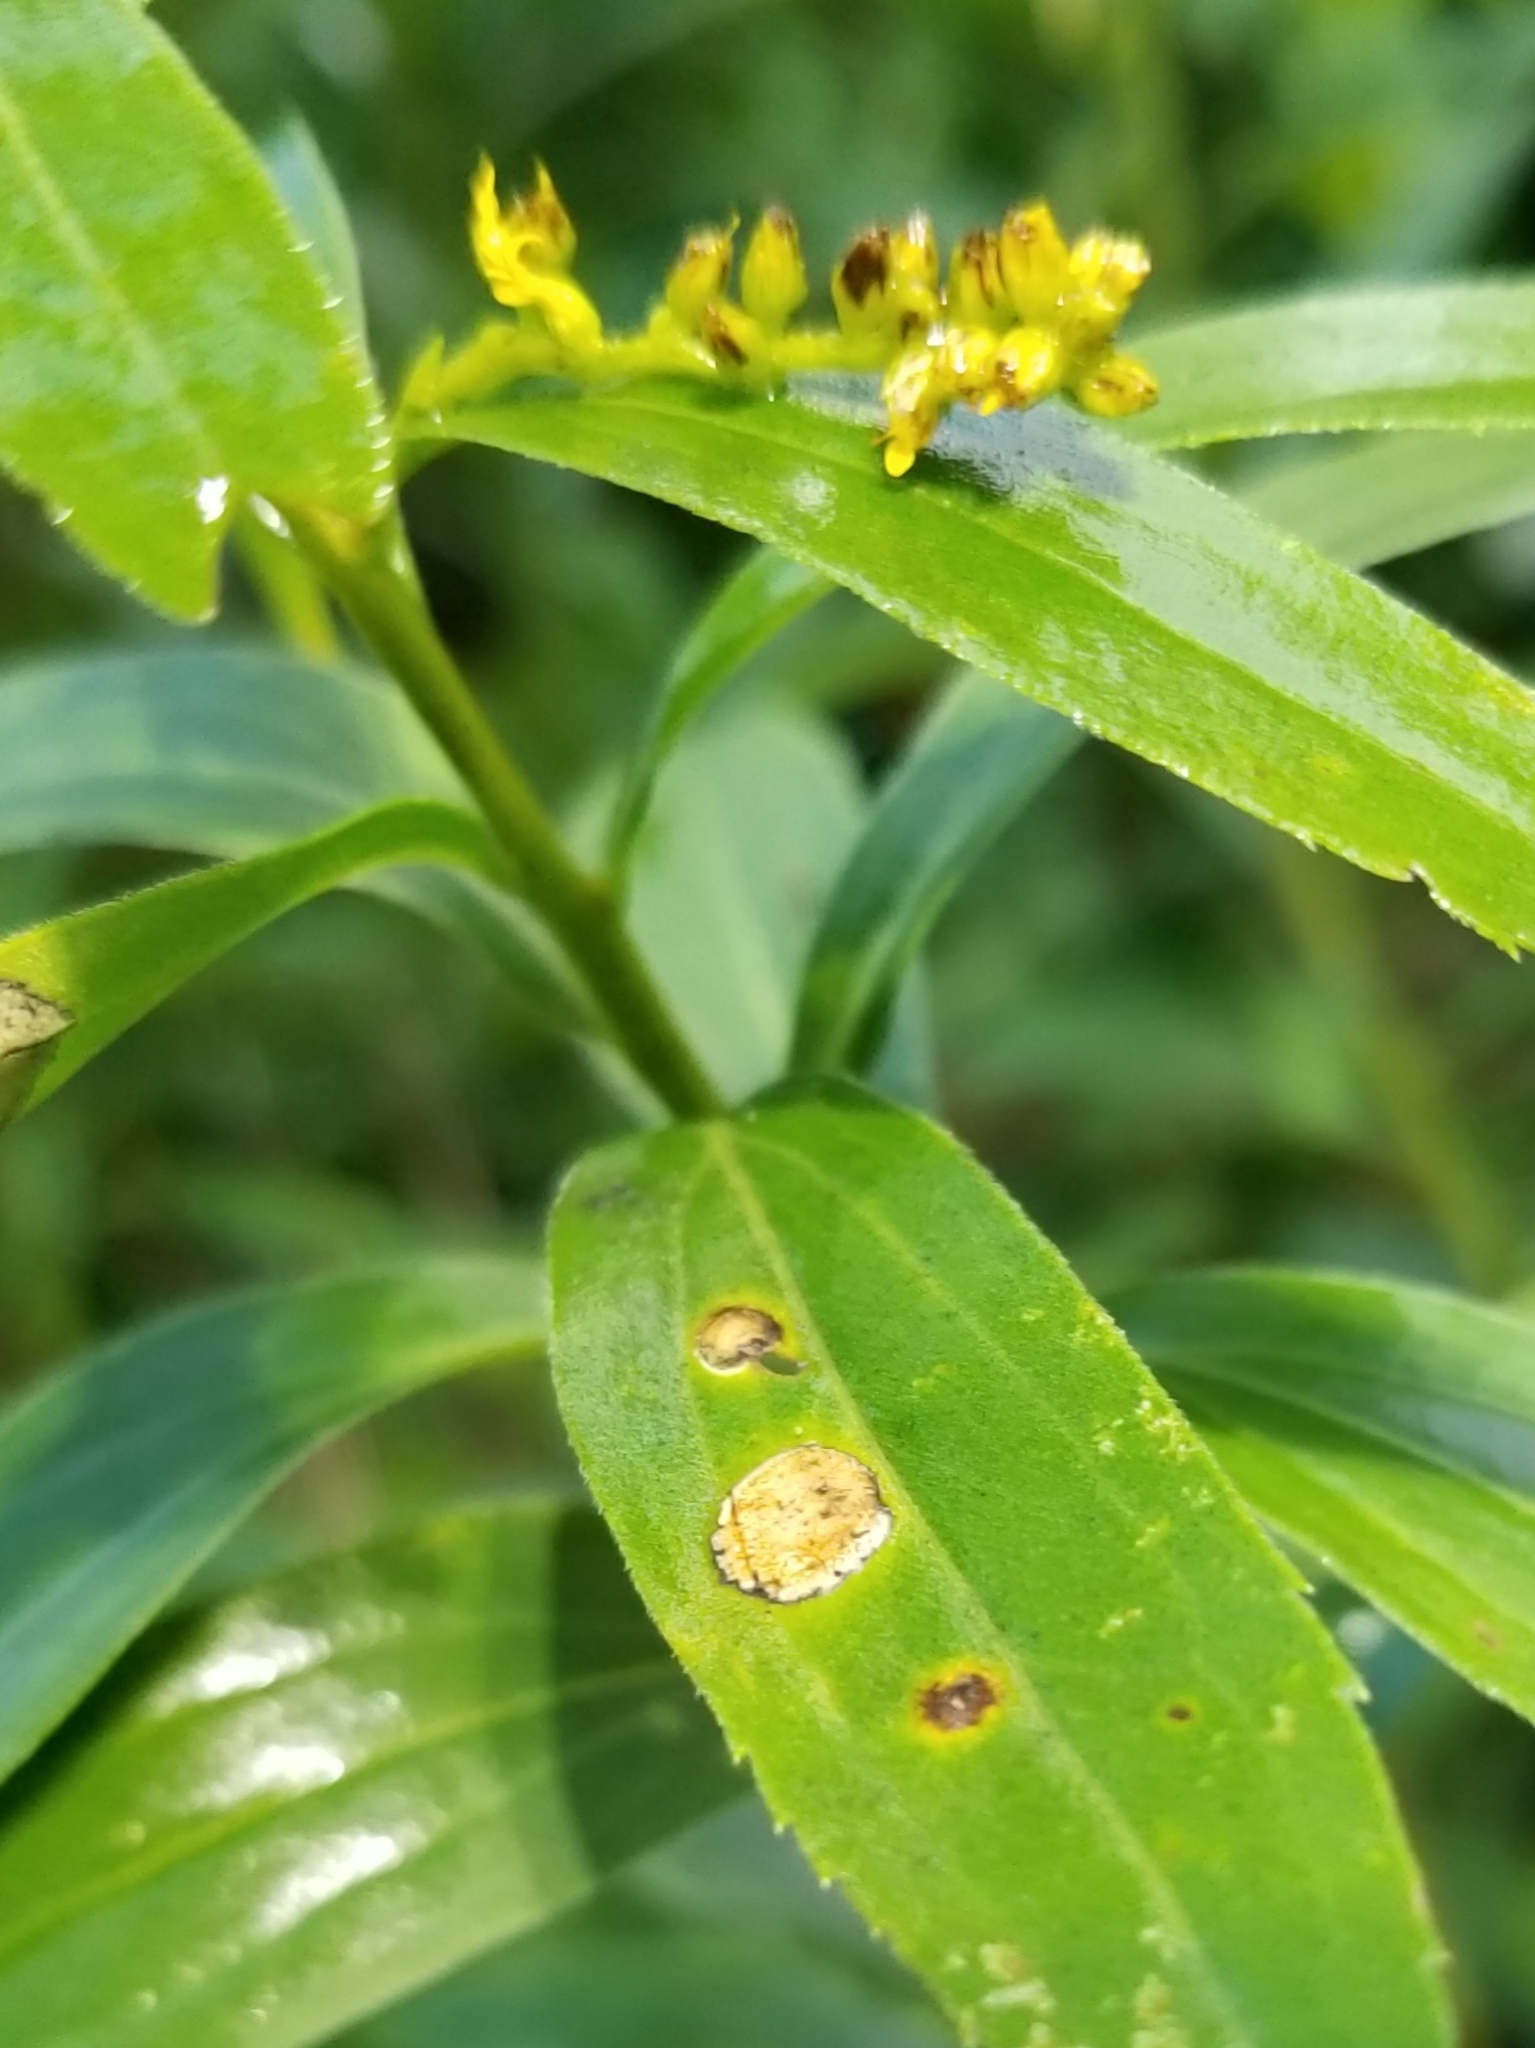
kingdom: Animalia
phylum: Arthropoda
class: Insecta
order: Diptera
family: Cecidomyiidae
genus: Asteromyia
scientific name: Asteromyia carbonifera
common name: Carbonifera goldenrod gall midge
